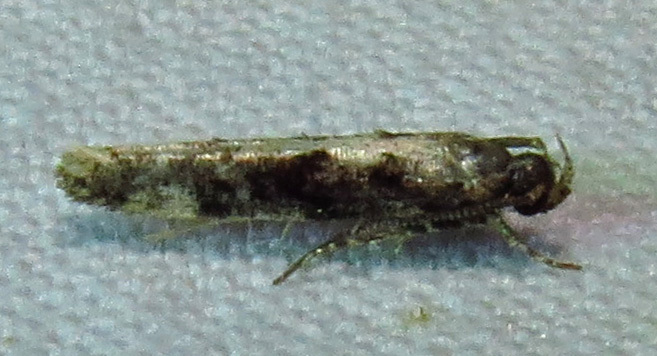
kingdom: Animalia
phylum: Arthropoda
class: Insecta
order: Lepidoptera
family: Gelechiidae
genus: Coleotechnites
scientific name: Coleotechnites florae
